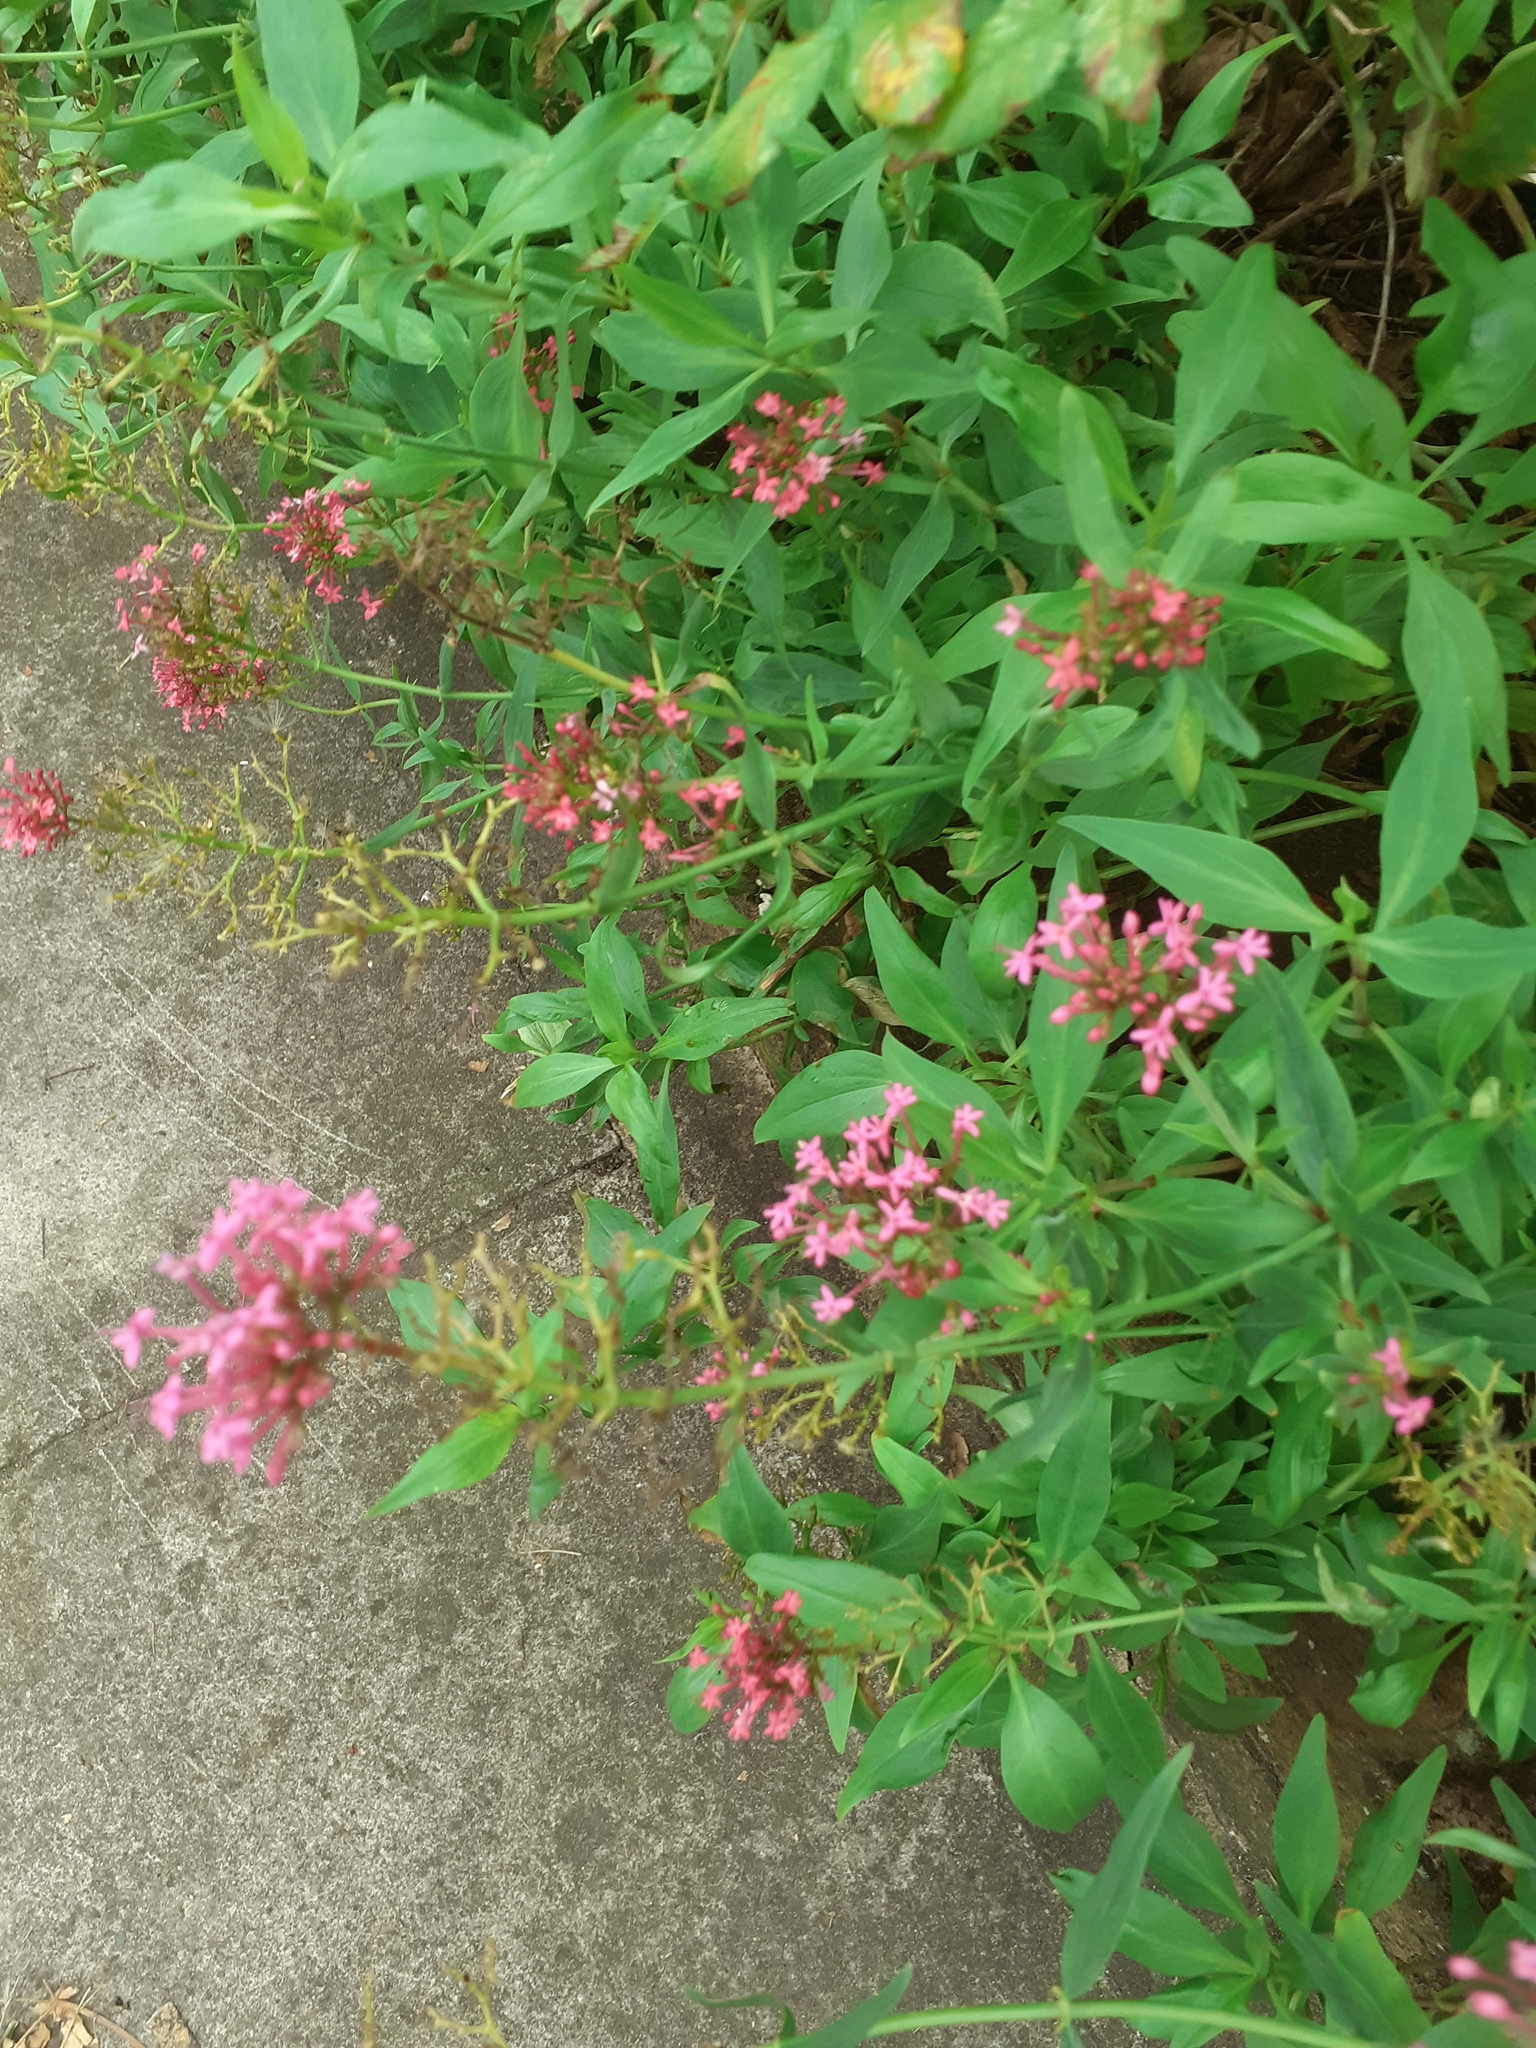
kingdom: Plantae
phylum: Tracheophyta
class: Magnoliopsida
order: Dipsacales
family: Caprifoliaceae
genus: Centranthus
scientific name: Centranthus ruber
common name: Red valerian
